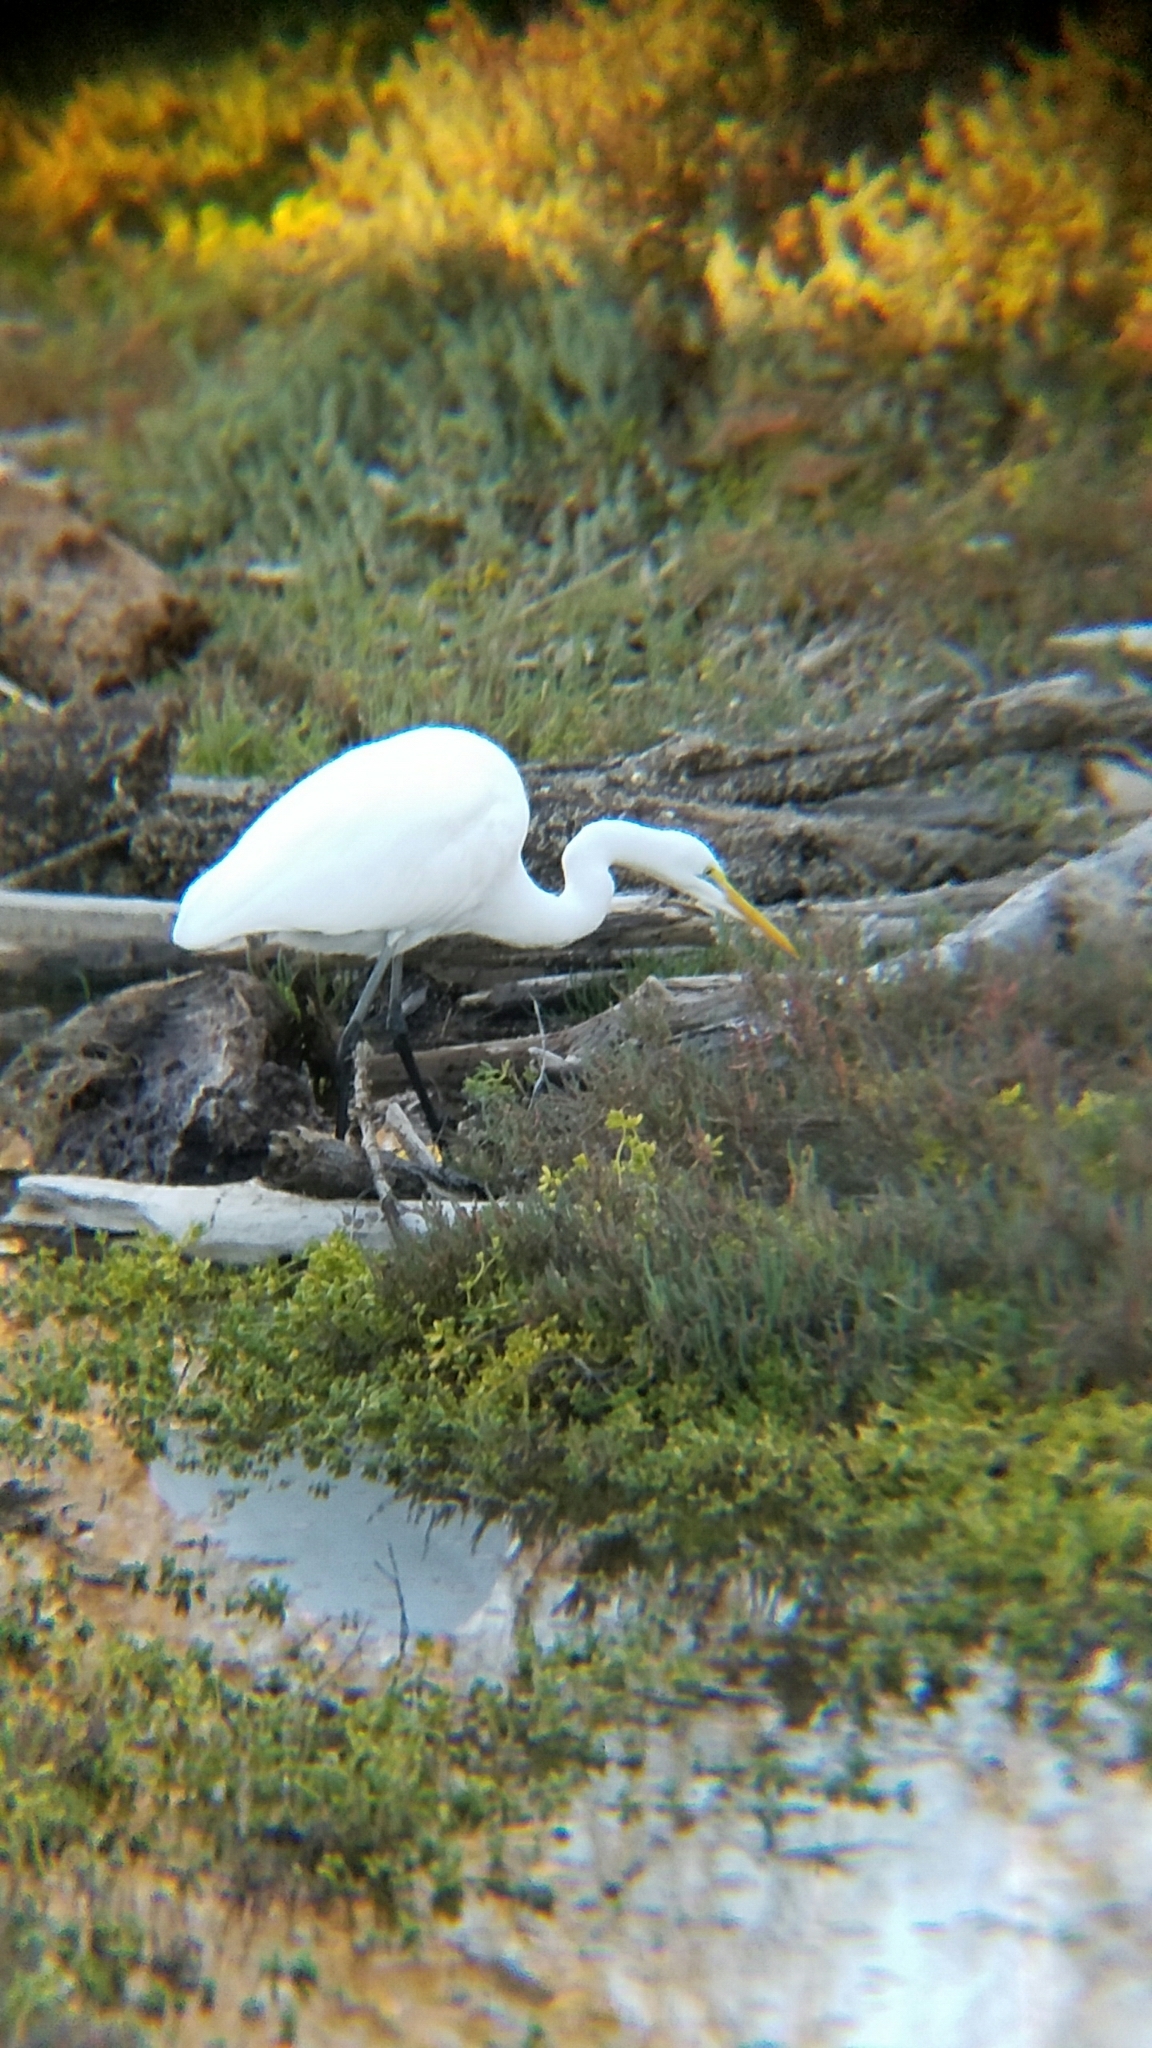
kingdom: Animalia
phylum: Chordata
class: Aves
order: Pelecaniformes
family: Ardeidae
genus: Ardea
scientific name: Ardea alba
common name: Great egret
